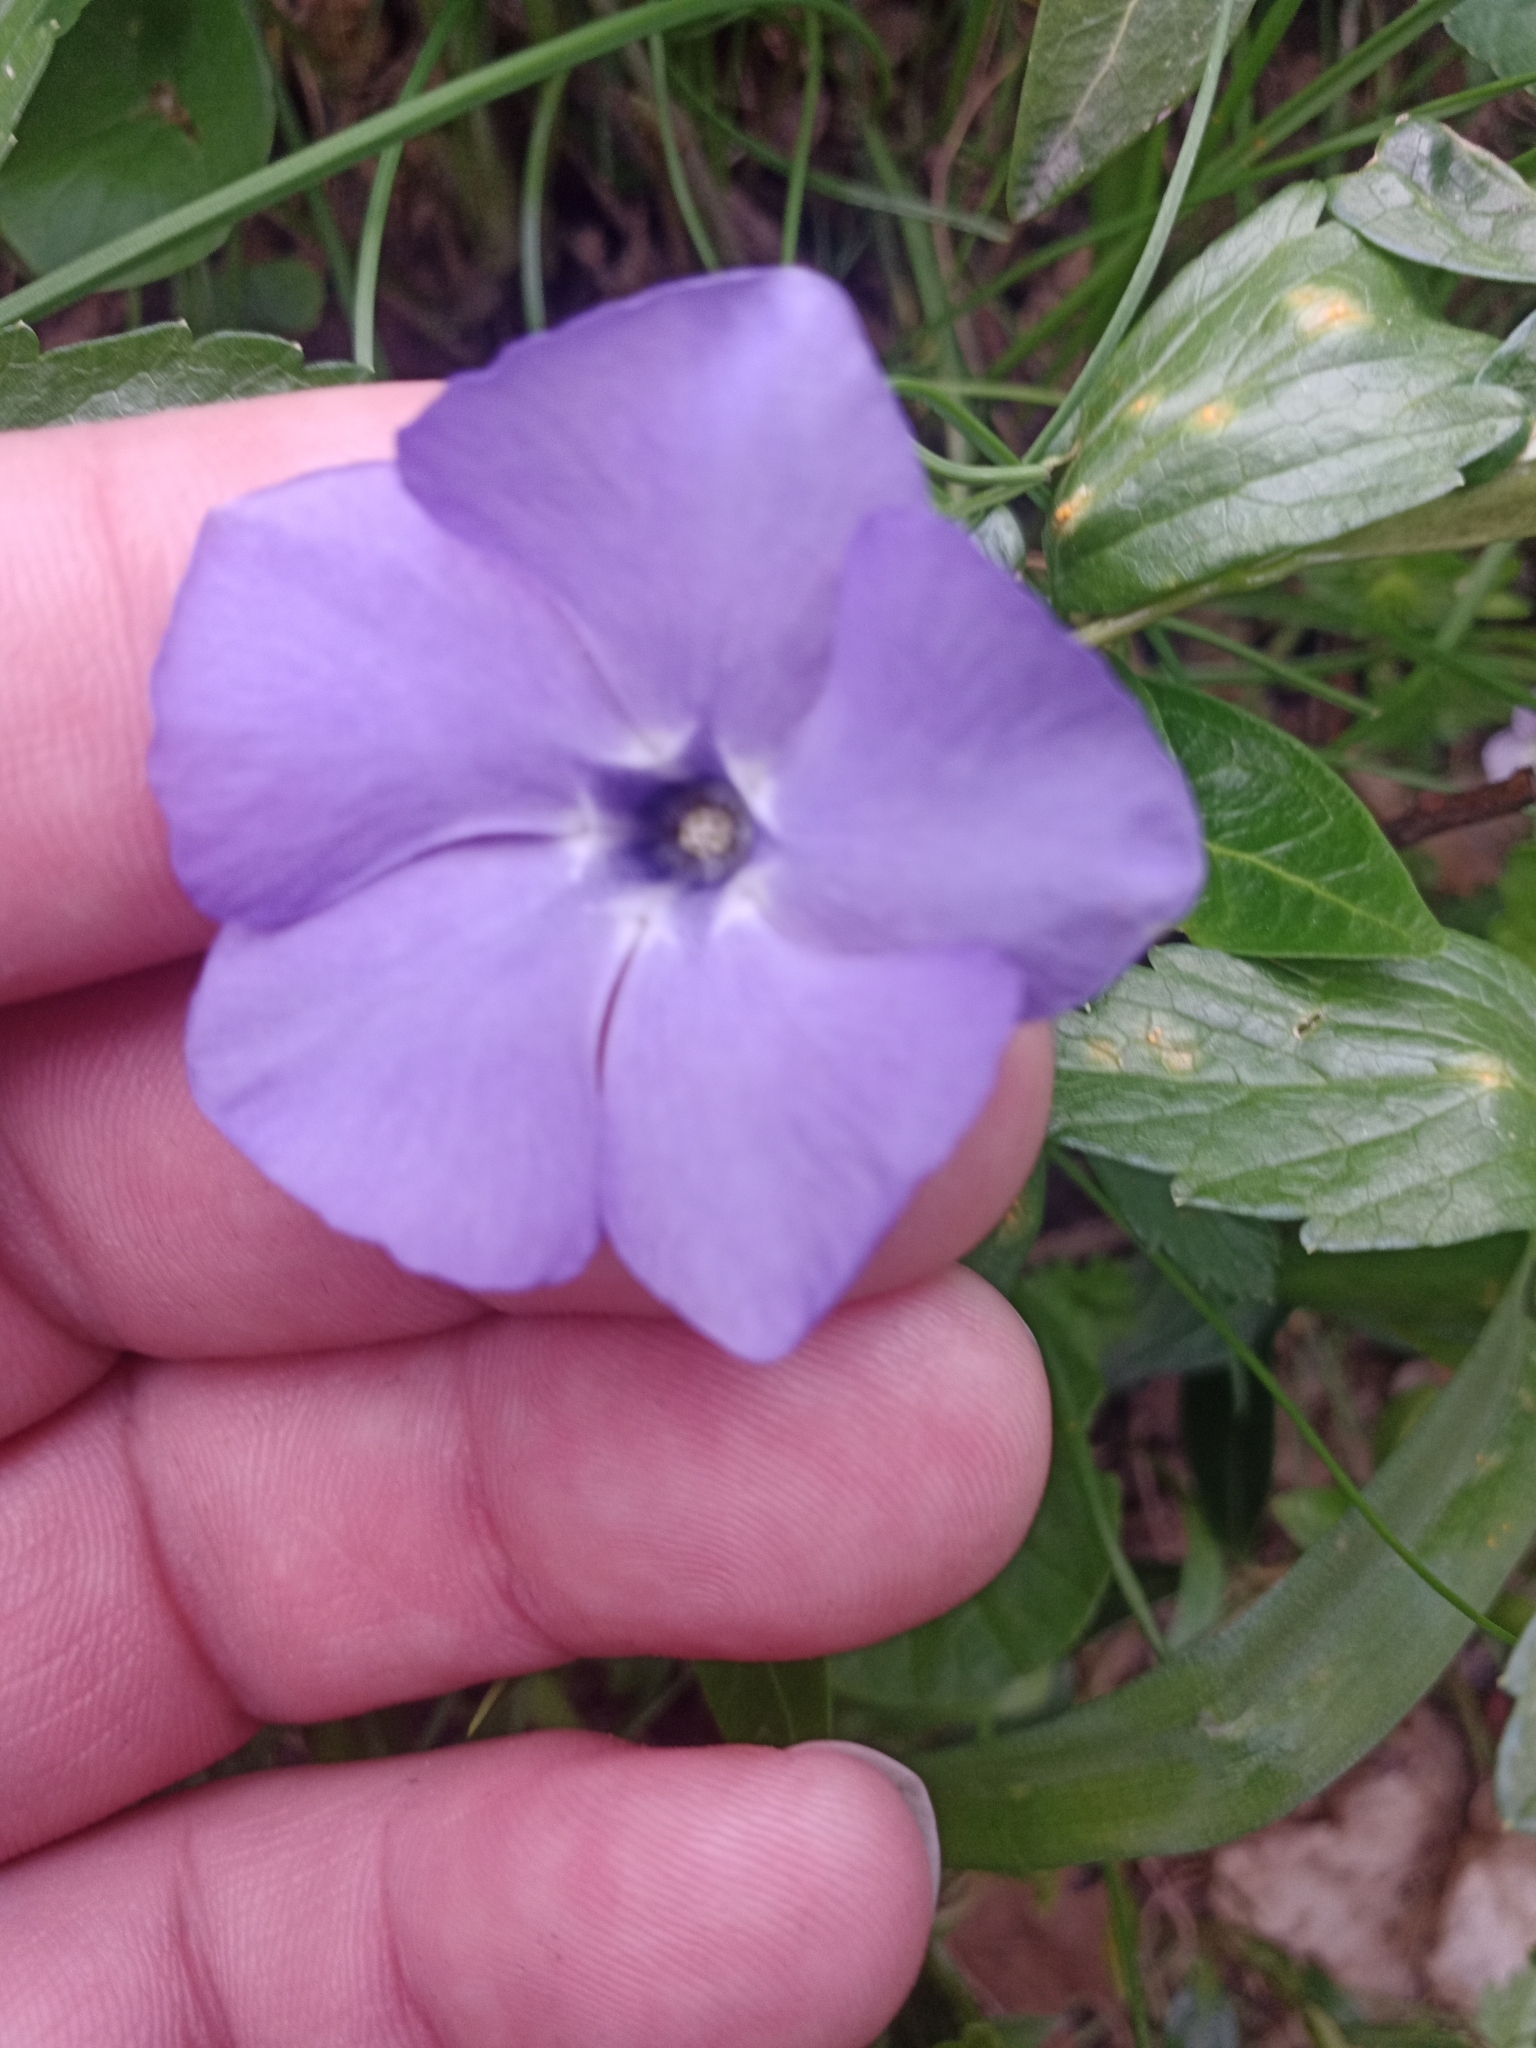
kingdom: Plantae
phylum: Tracheophyta
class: Magnoliopsida
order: Gentianales
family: Apocynaceae
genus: Vinca
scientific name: Vinca minor
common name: Lesser periwinkle
